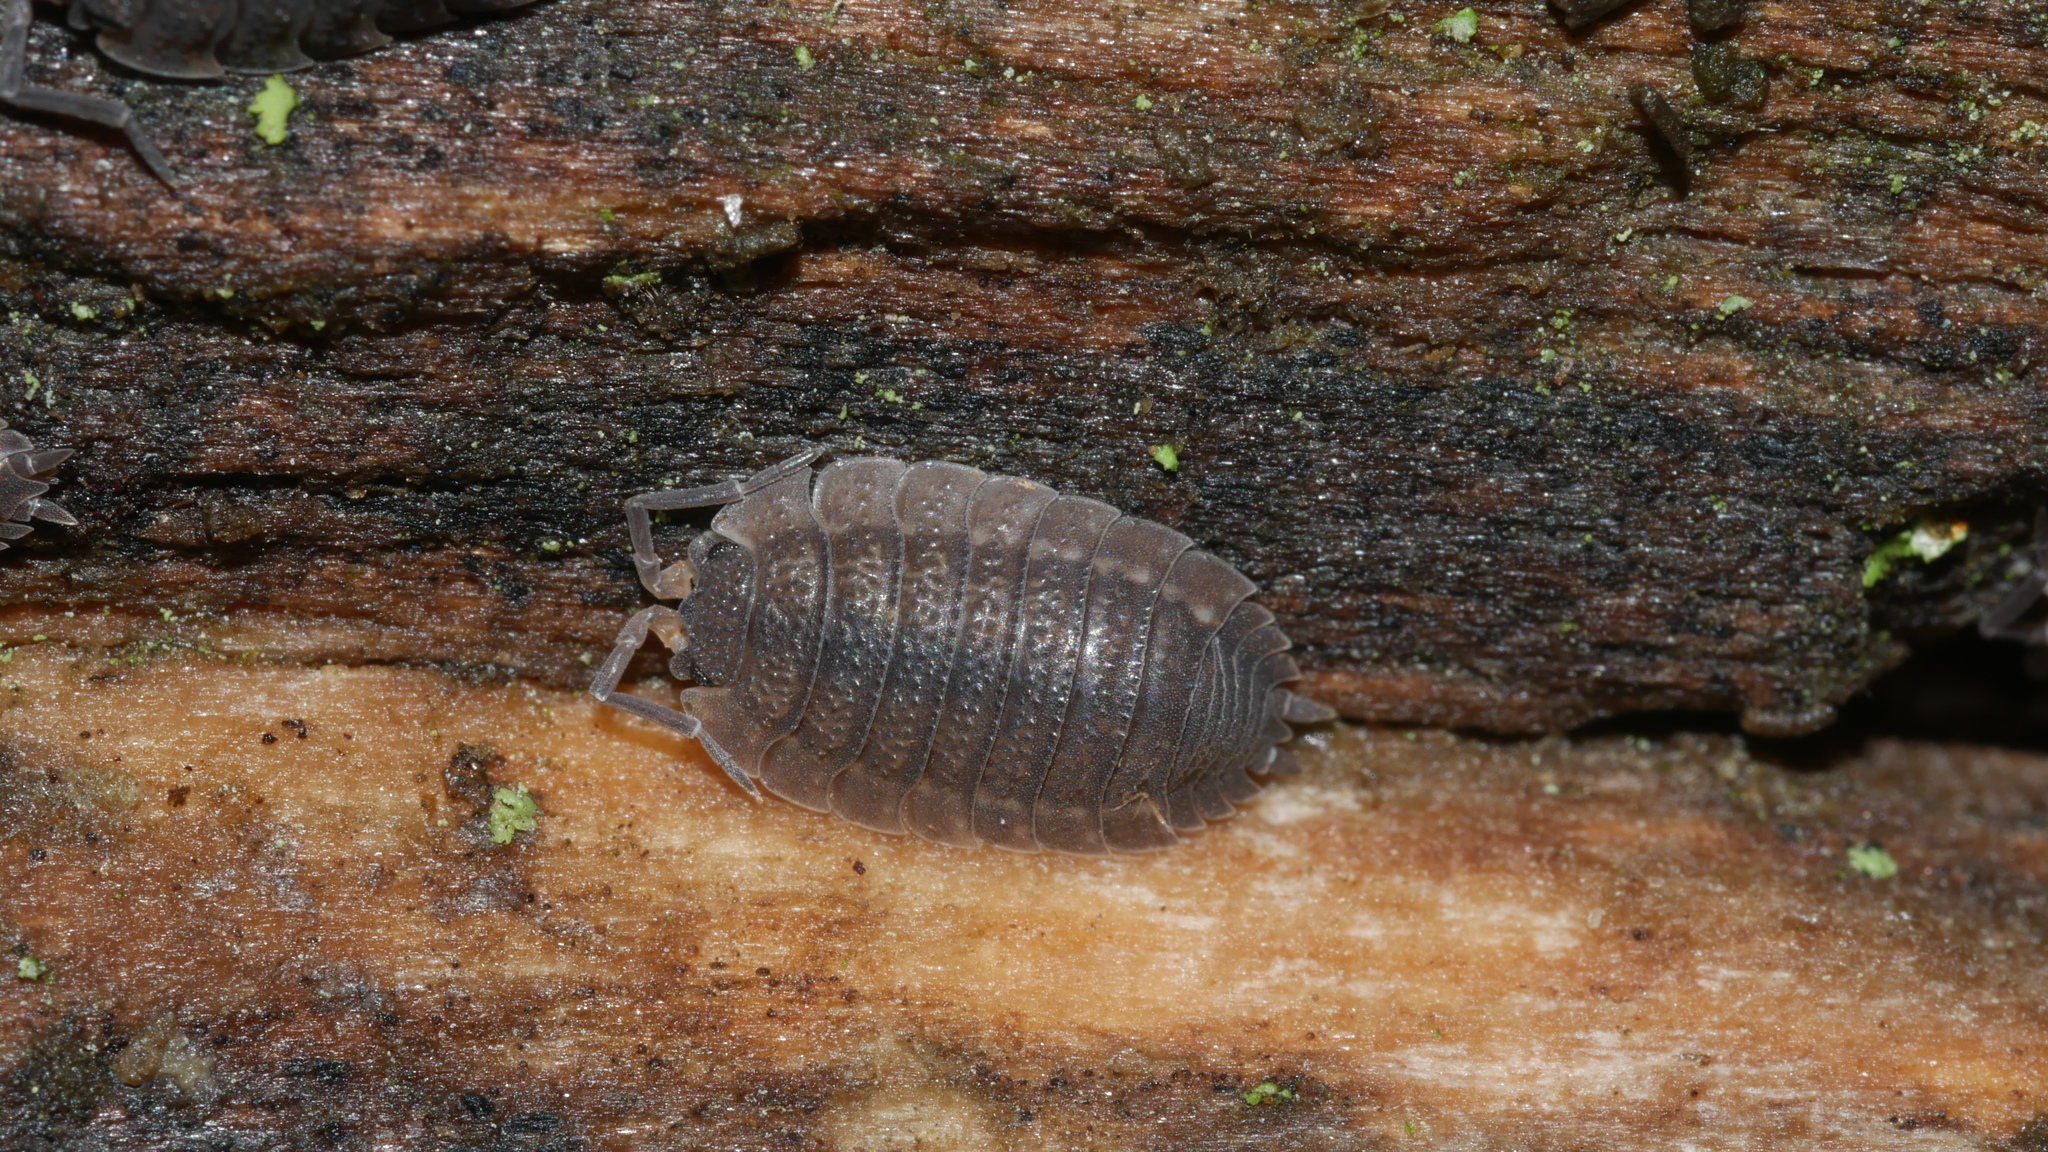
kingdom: Animalia
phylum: Arthropoda
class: Malacostraca
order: Isopoda
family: Porcellionidae
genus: Porcellio
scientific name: Porcellio scaber
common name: Common rough woodlouse
